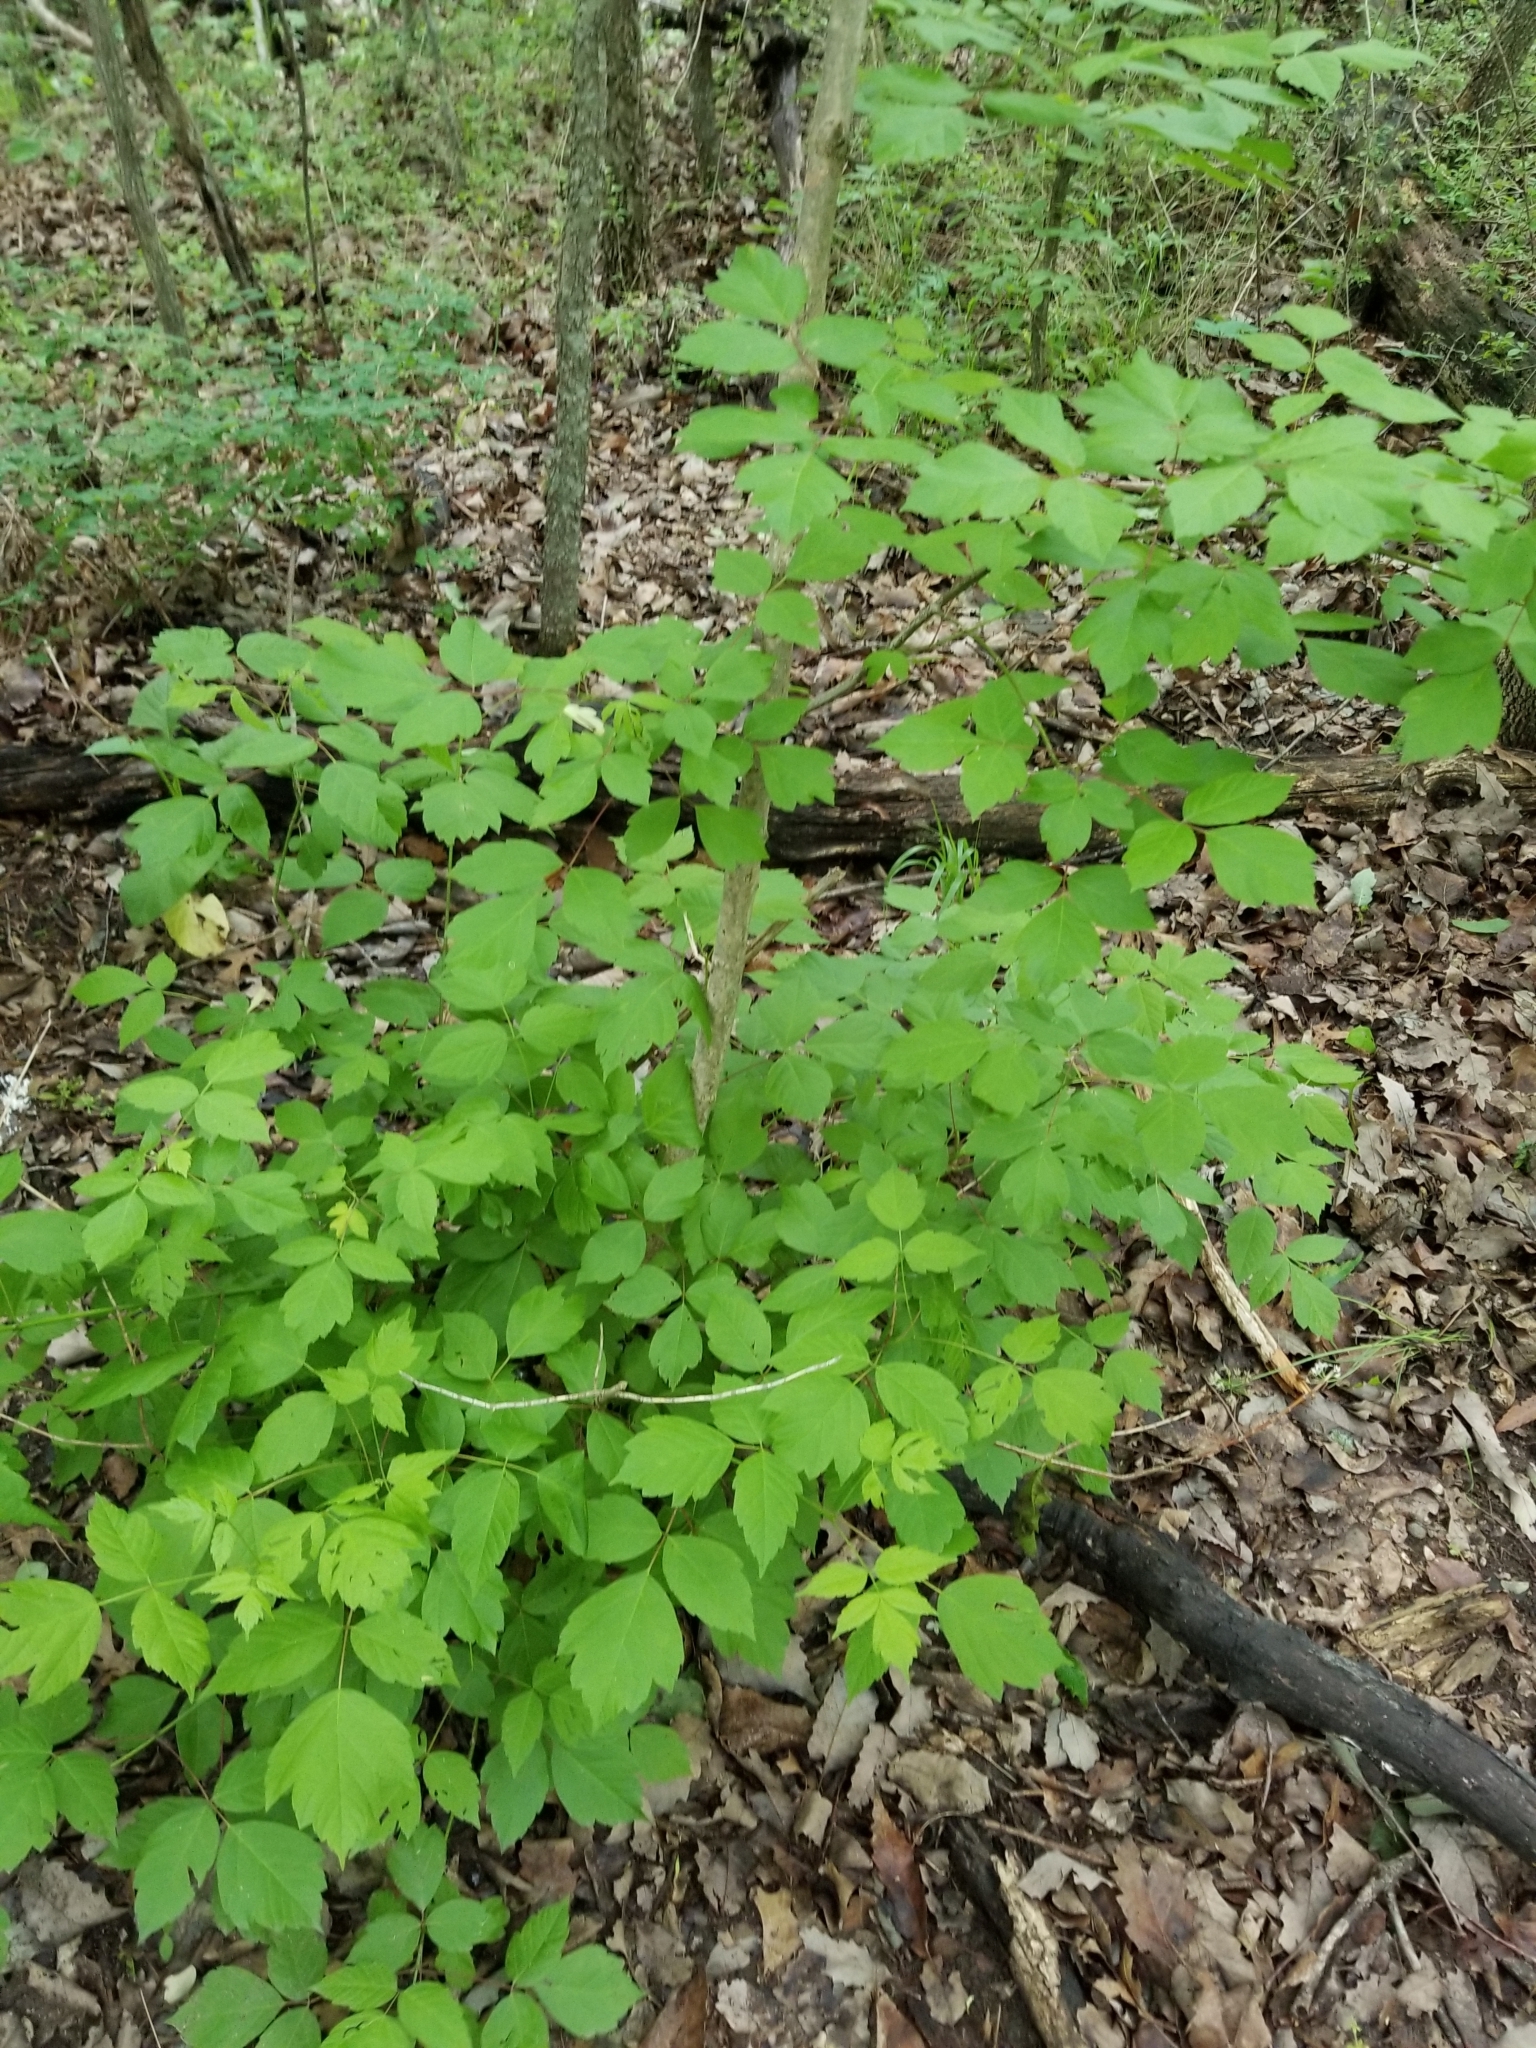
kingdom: Plantae
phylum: Tracheophyta
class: Magnoliopsida
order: Sapindales
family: Sapindaceae
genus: Acer
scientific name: Acer negundo
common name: Ashleaf maple
